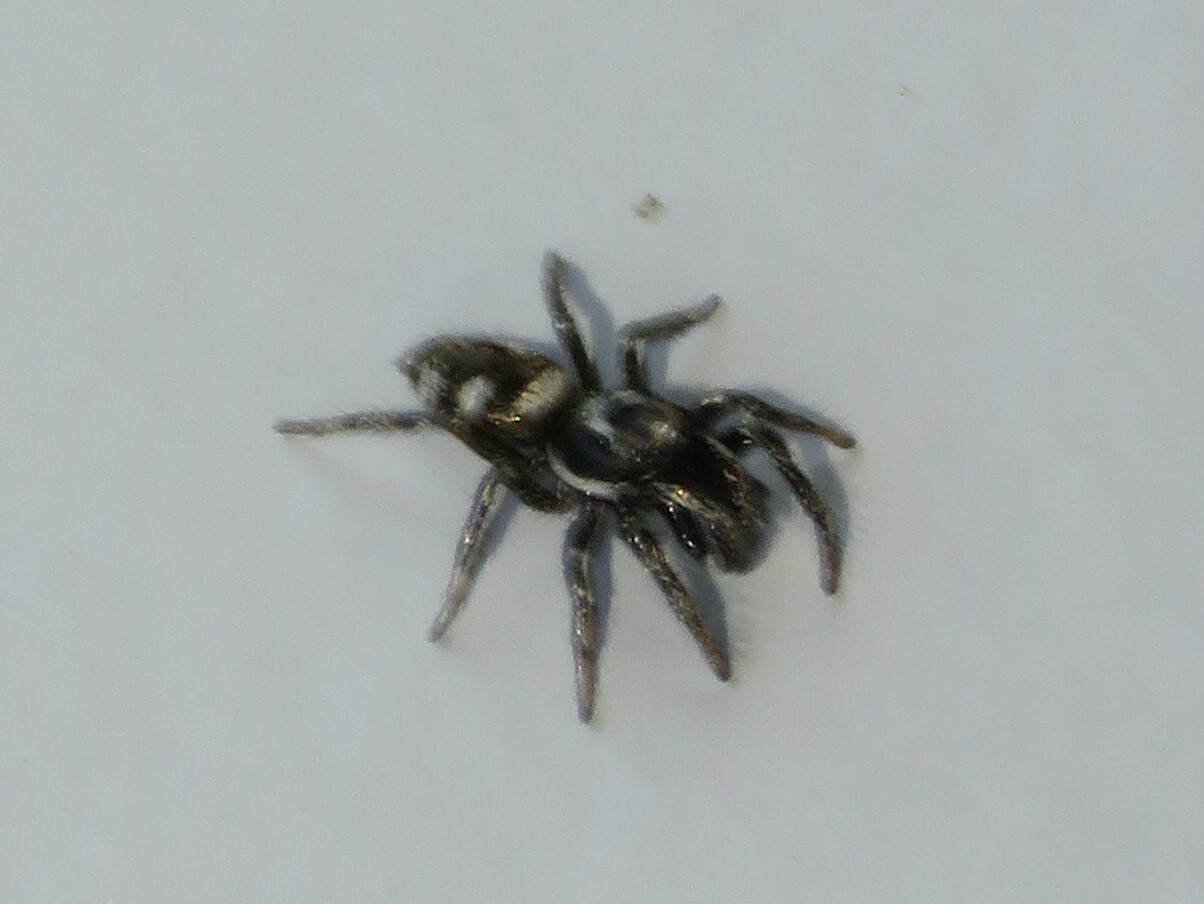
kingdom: Animalia
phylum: Arthropoda
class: Arachnida
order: Araneae
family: Salticidae
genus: Salticus
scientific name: Salticus scenicus
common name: Zebra jumper
